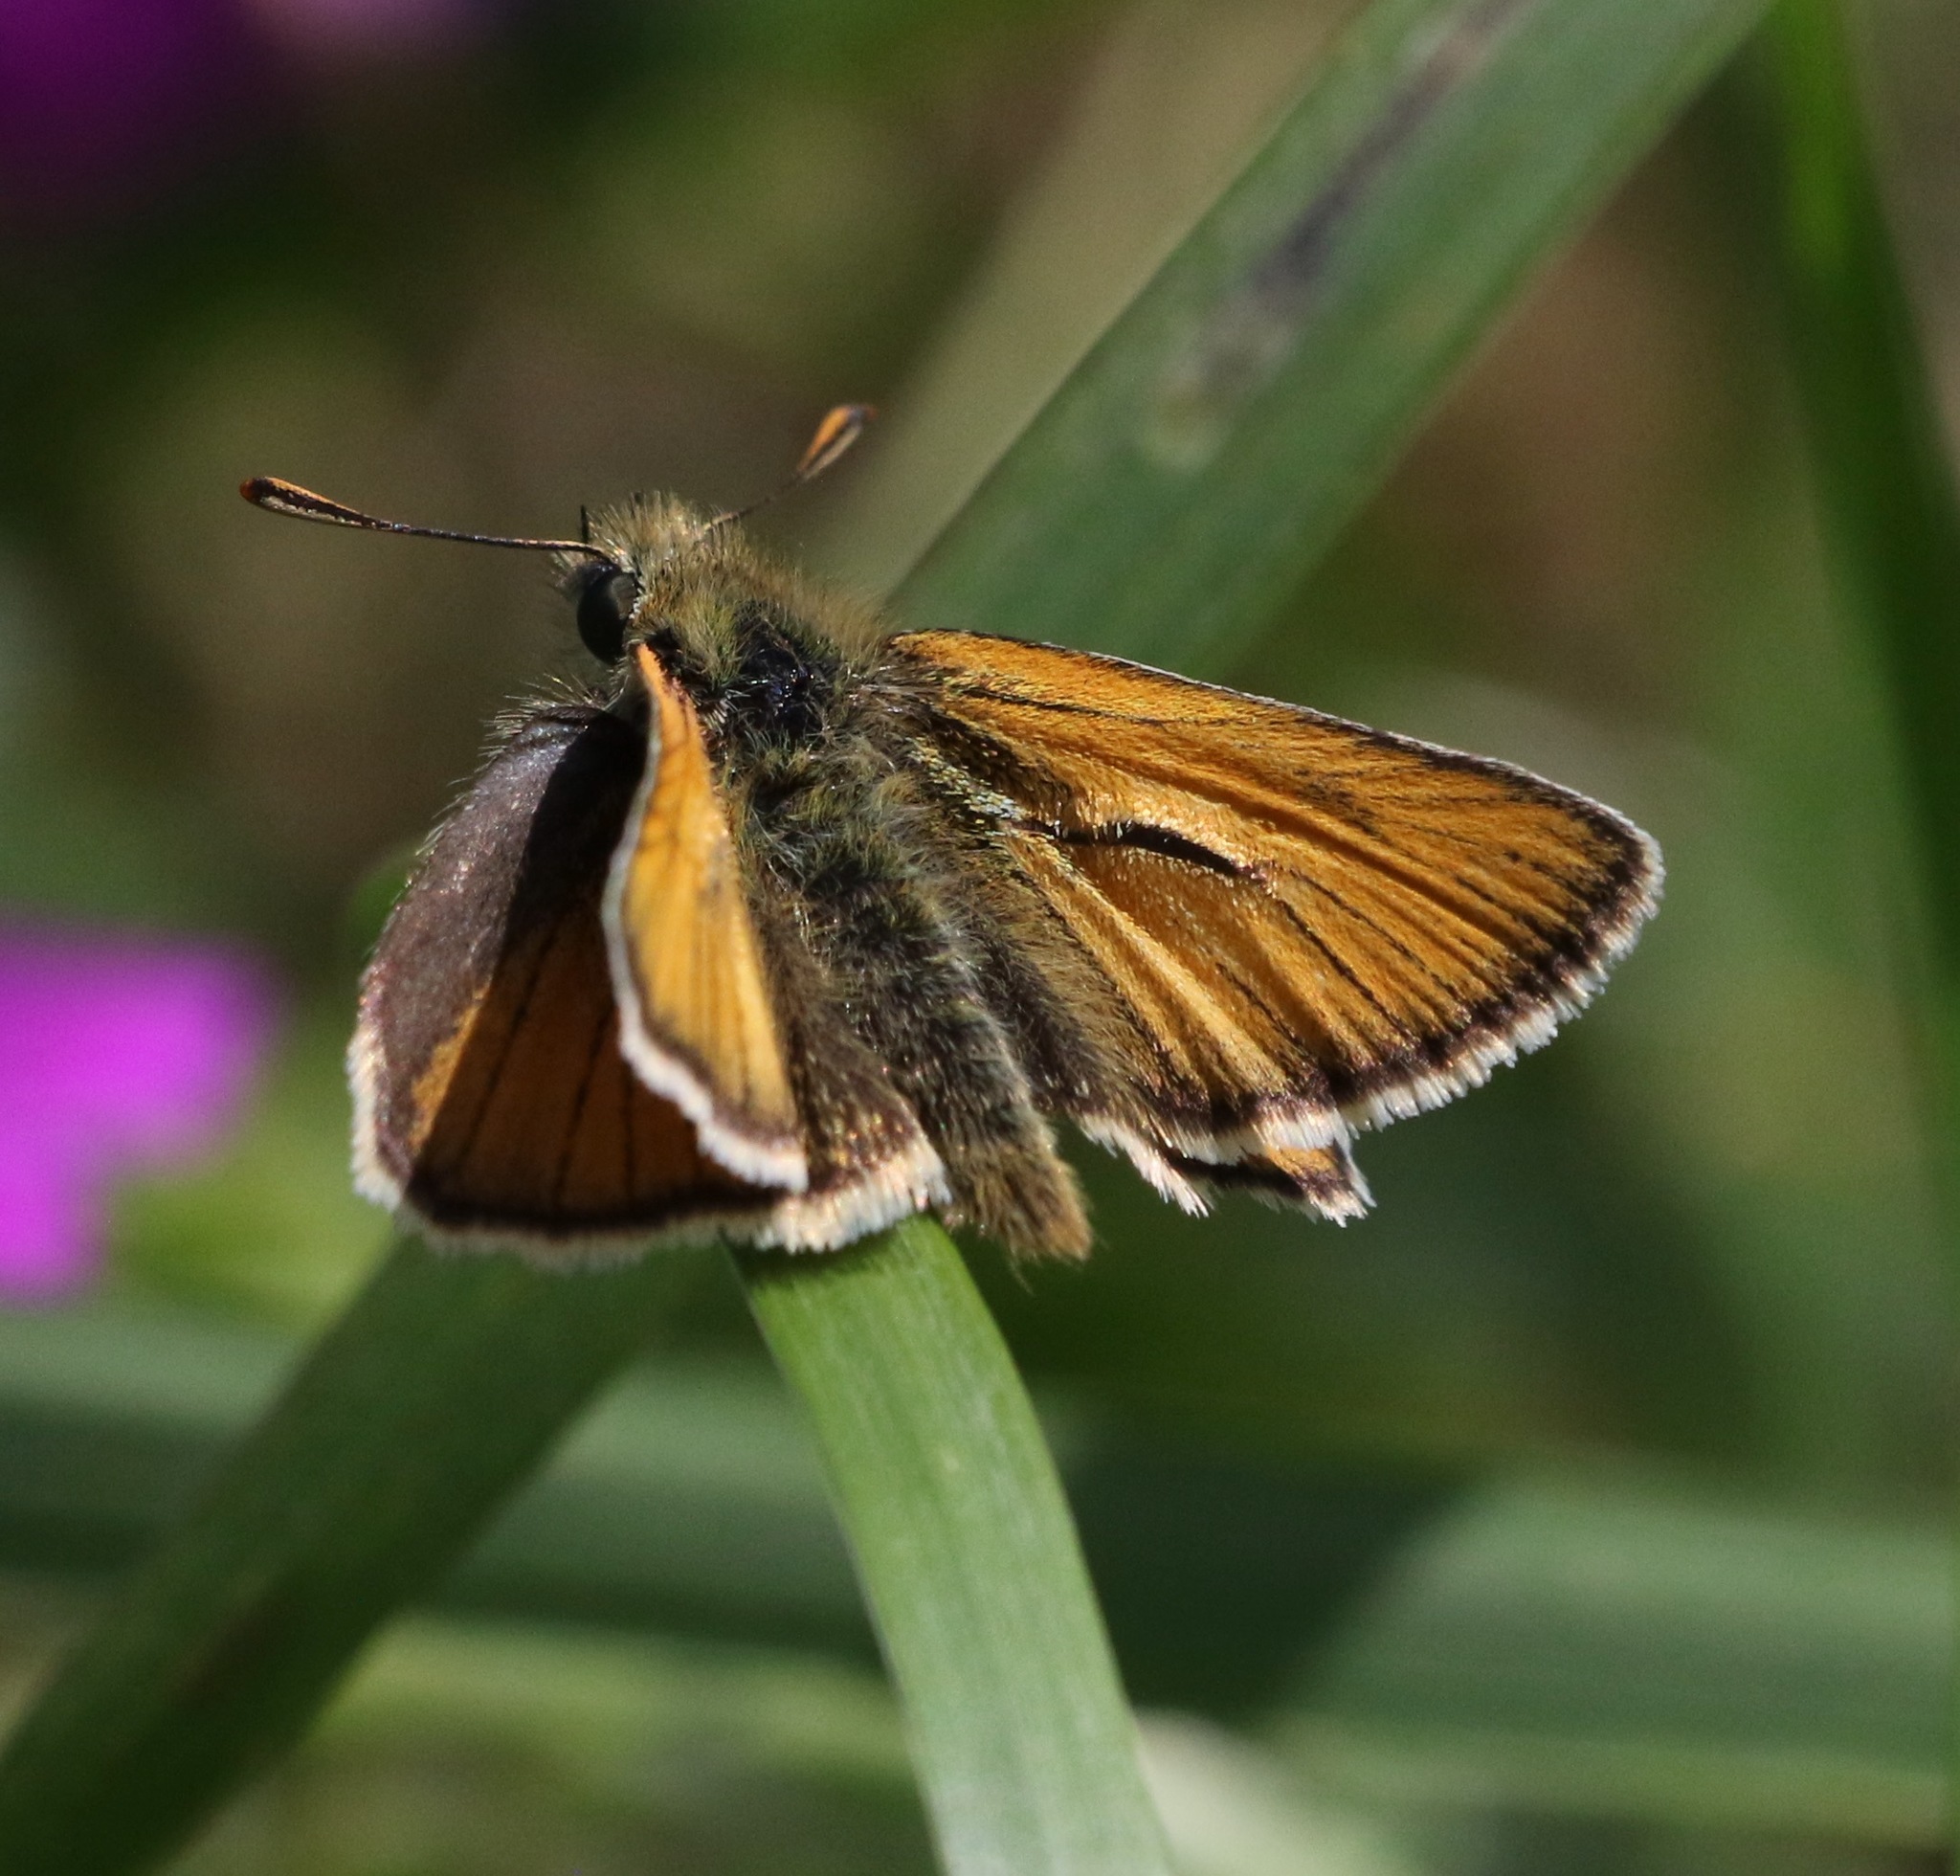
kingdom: Animalia
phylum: Arthropoda
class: Insecta
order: Lepidoptera
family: Hesperiidae
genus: Thymelicus
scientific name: Thymelicus sylvestris
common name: Small skipper
